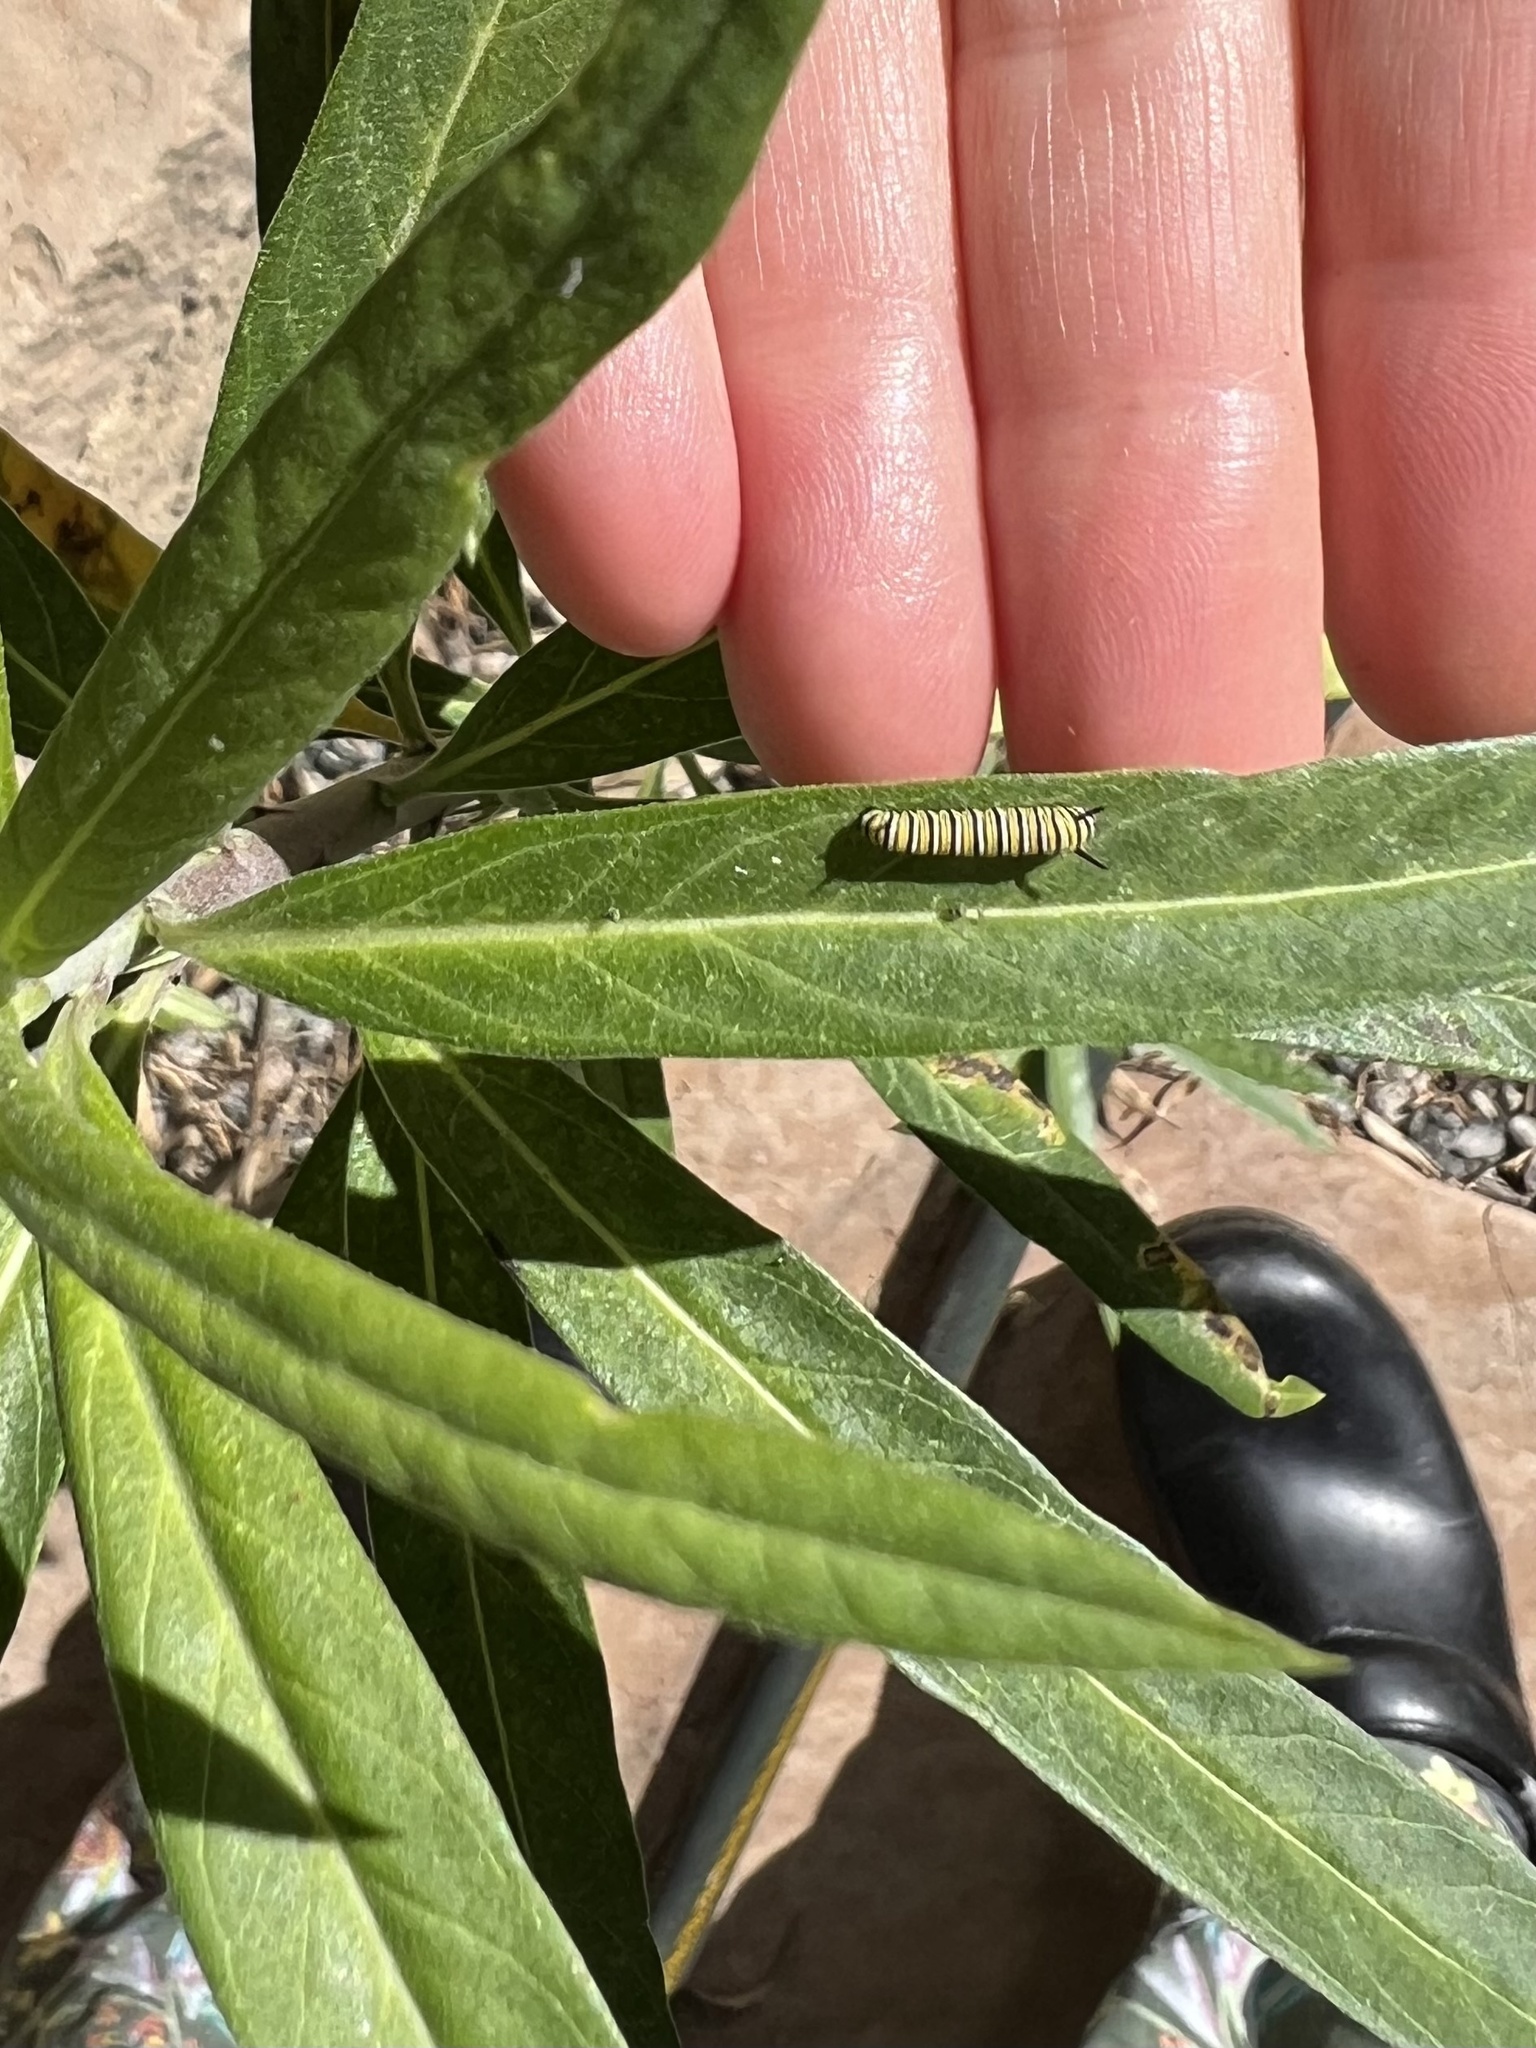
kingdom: Animalia
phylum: Arthropoda
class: Insecta
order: Lepidoptera
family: Nymphalidae
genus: Danaus
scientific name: Danaus plexippus
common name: Monarch
